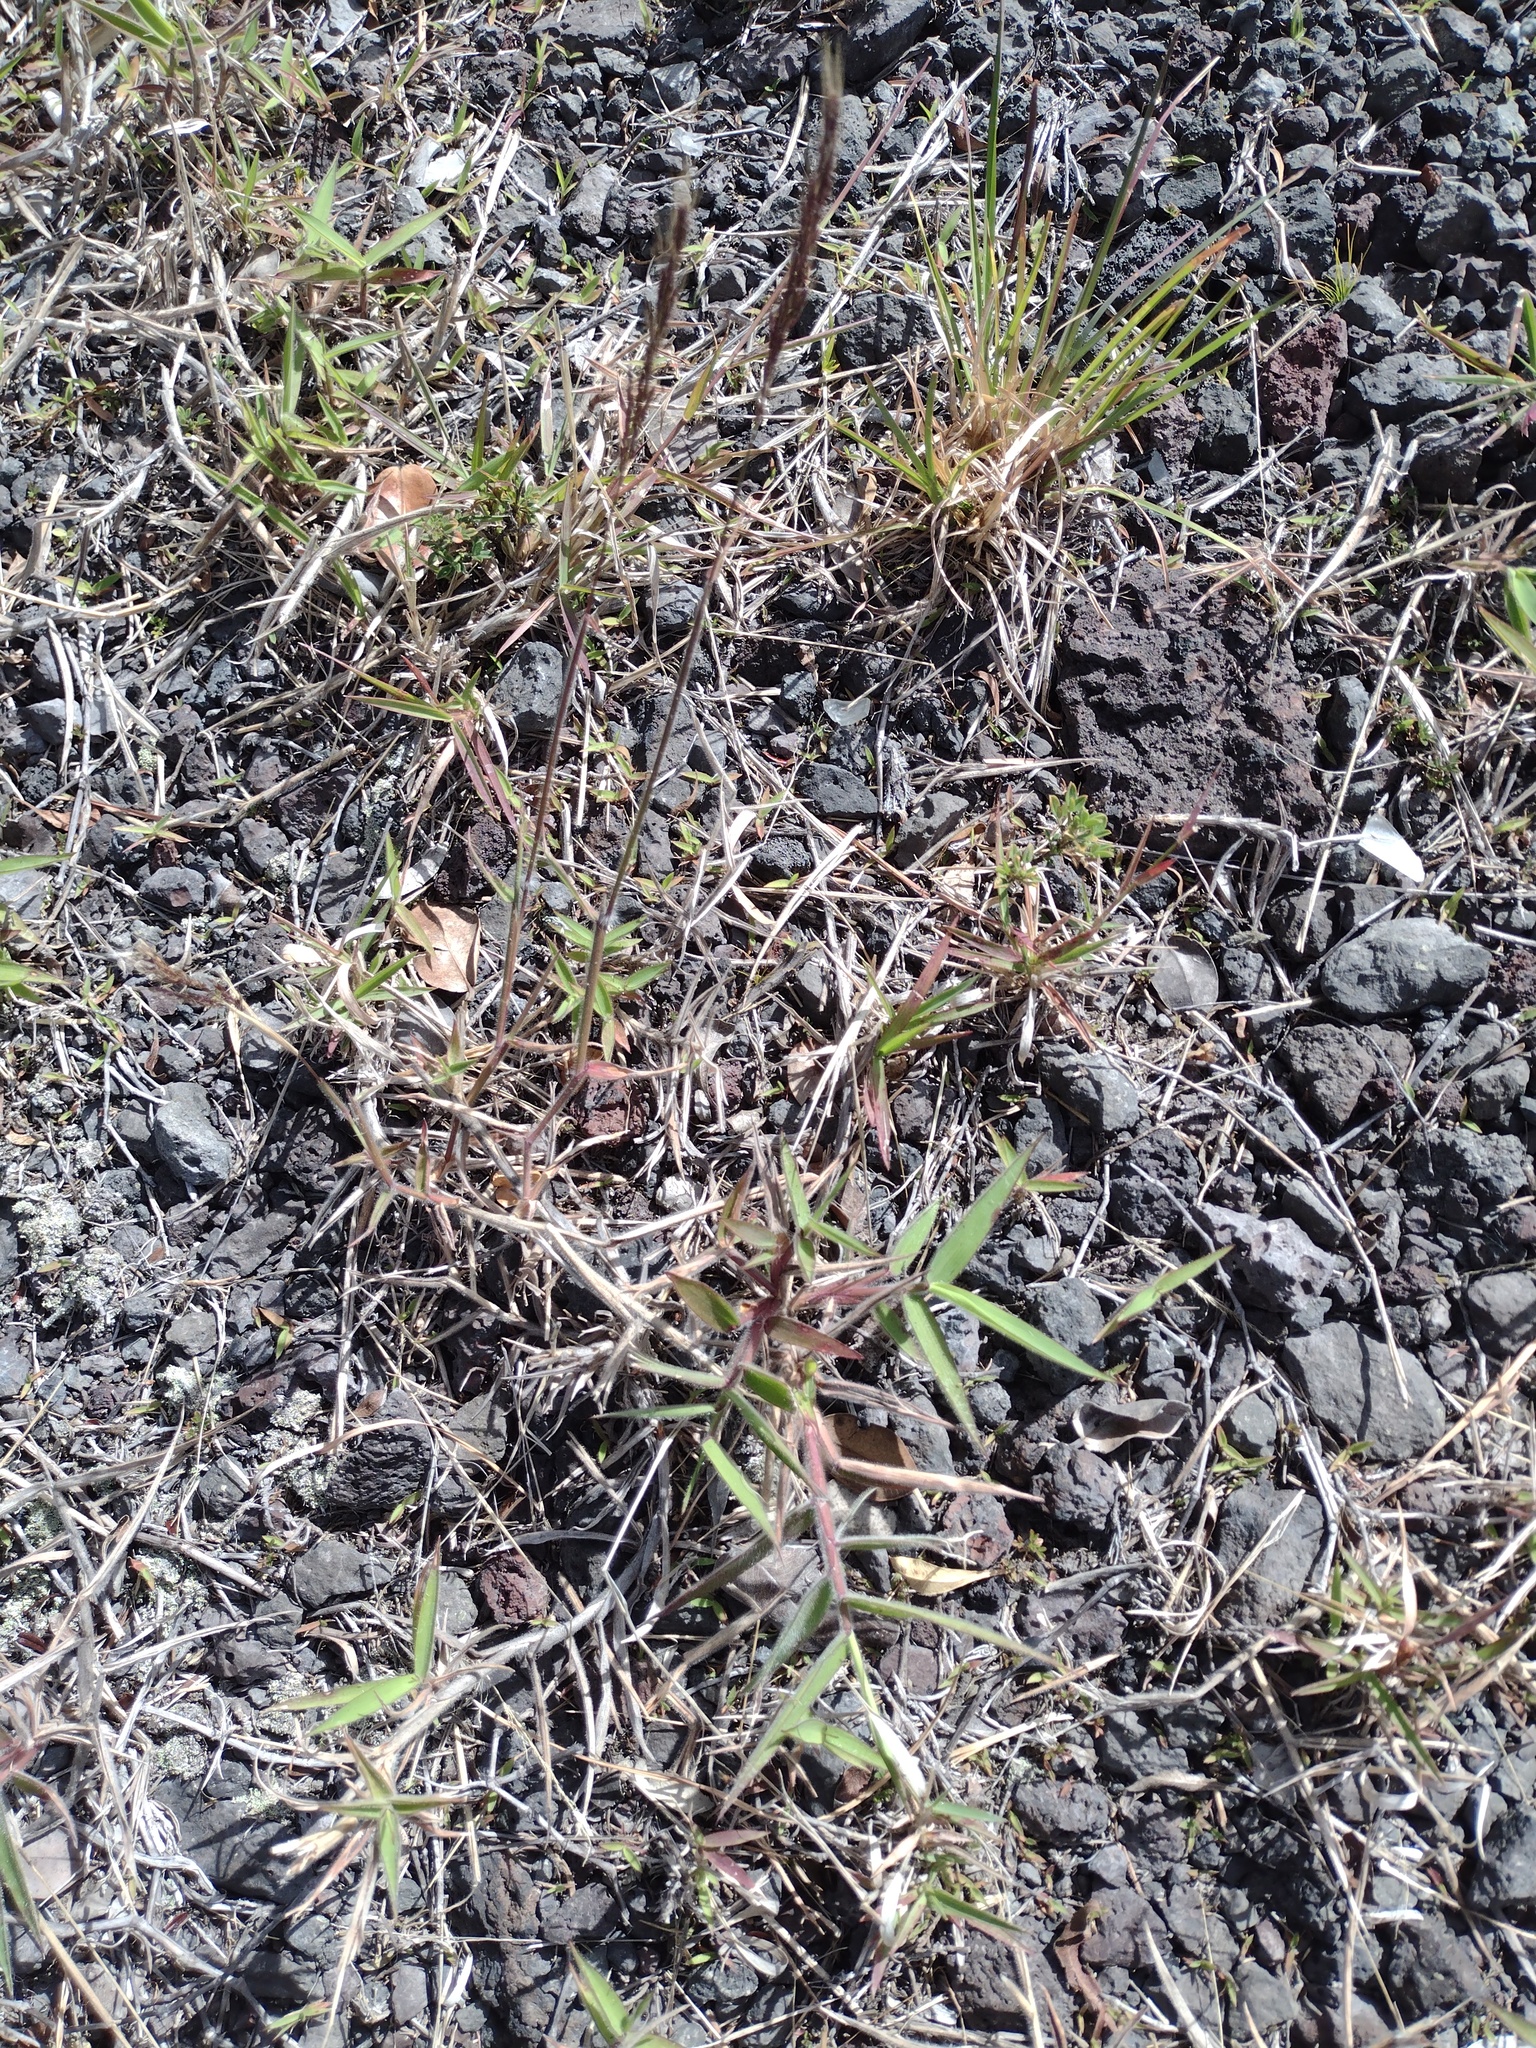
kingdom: Plantae
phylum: Tracheophyta
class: Liliopsida
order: Poales
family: Poaceae
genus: Melinis
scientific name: Melinis minutiflora
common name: Molassesgrass
